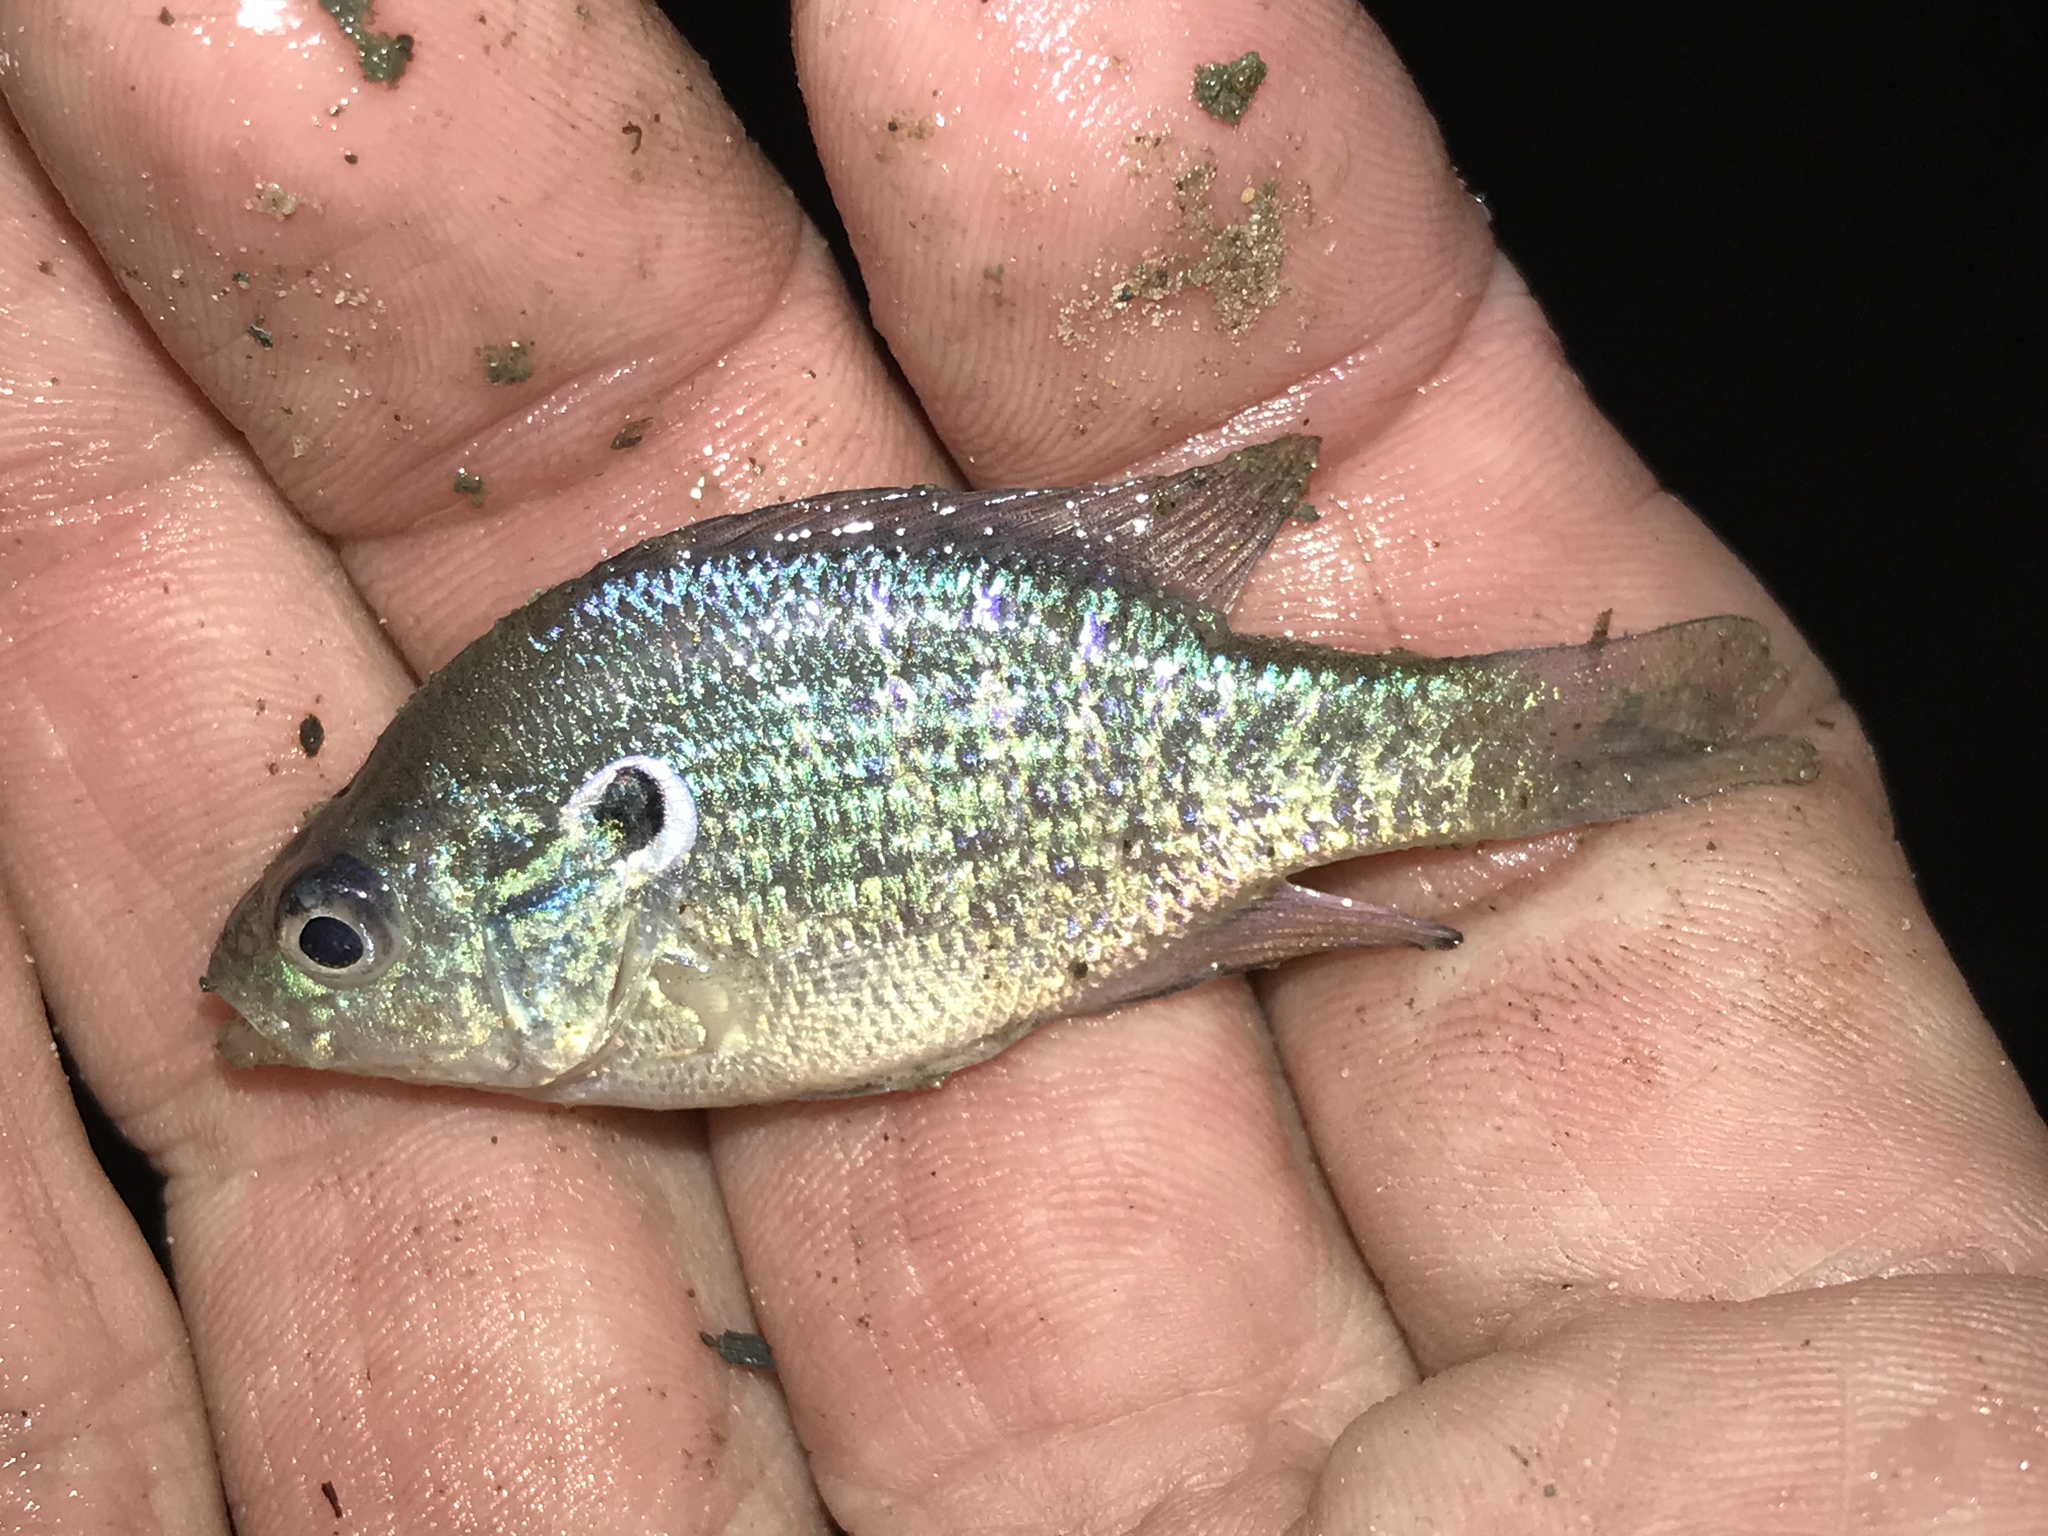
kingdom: Animalia
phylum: Chordata
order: Perciformes
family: Centrarchidae
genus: Lepomis
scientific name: Lepomis humilis
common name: Orangespotted sunfish
